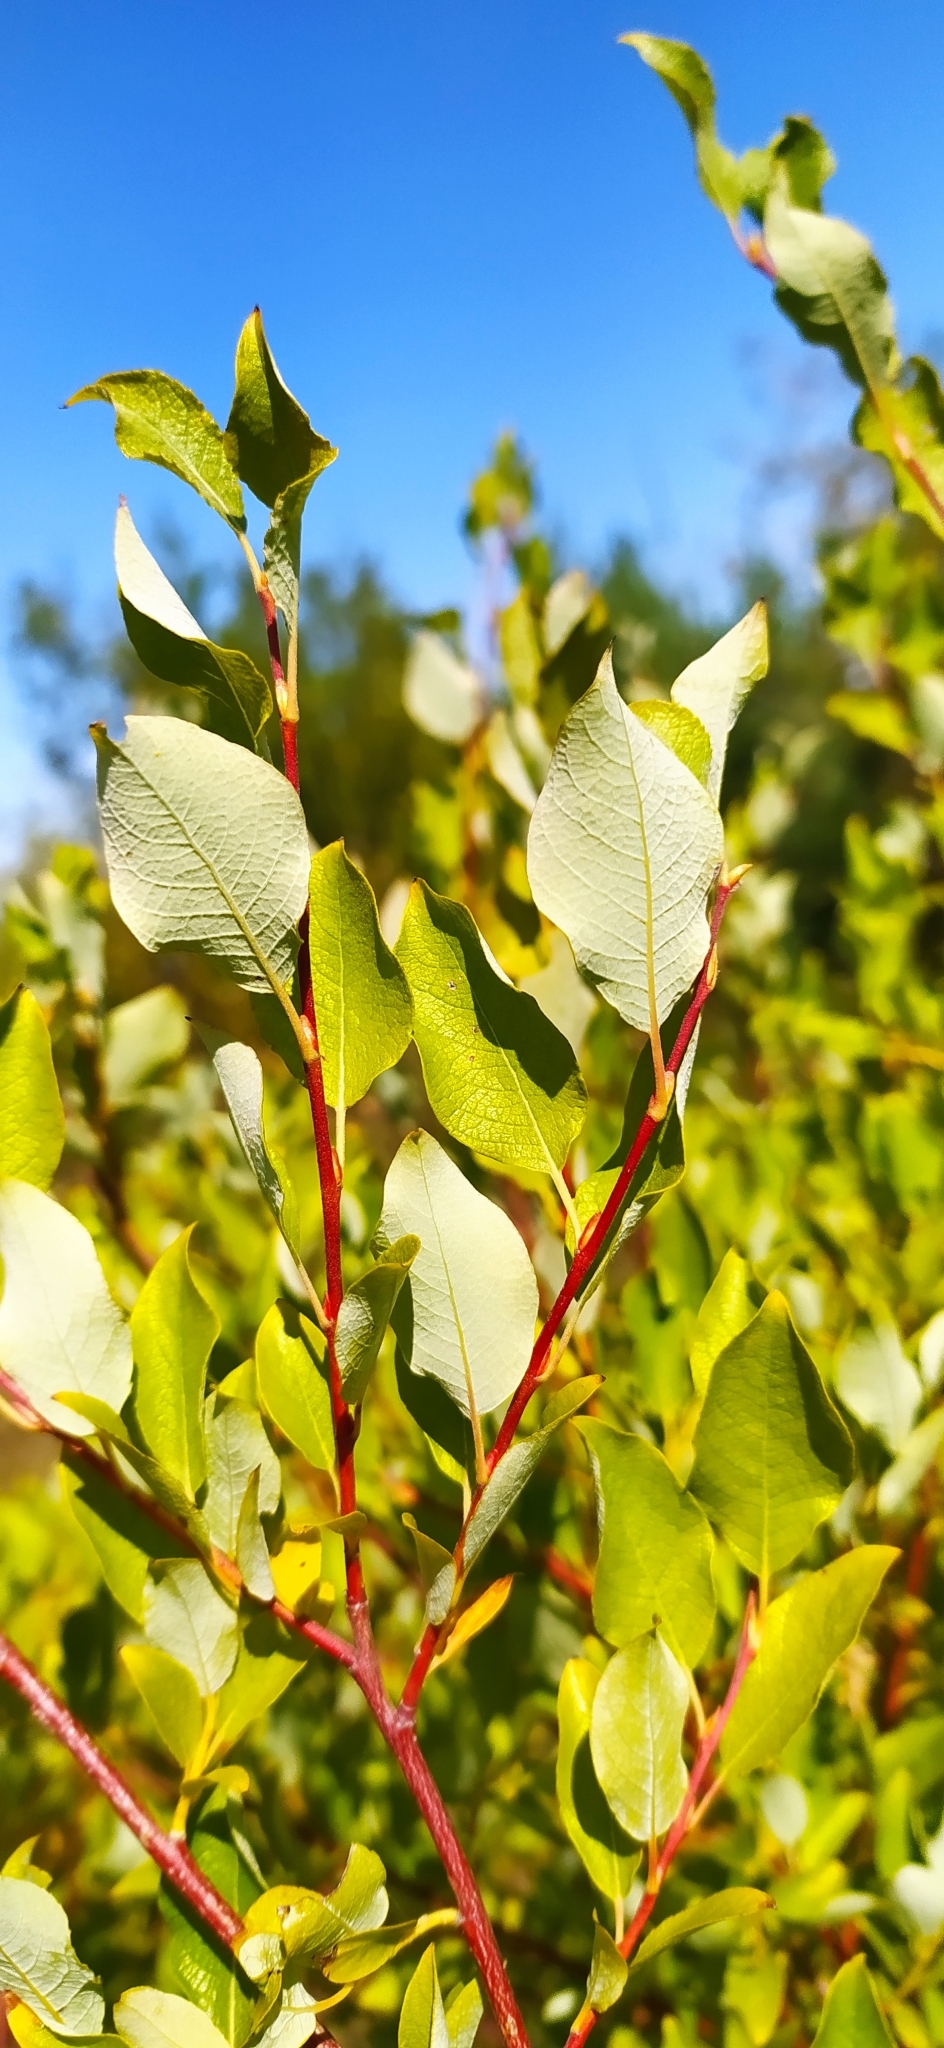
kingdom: Plantae
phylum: Tracheophyta
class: Magnoliopsida
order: Malpighiales
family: Salicaceae
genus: Salix
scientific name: Salix phylicifolia
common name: Tea-leaved willow
